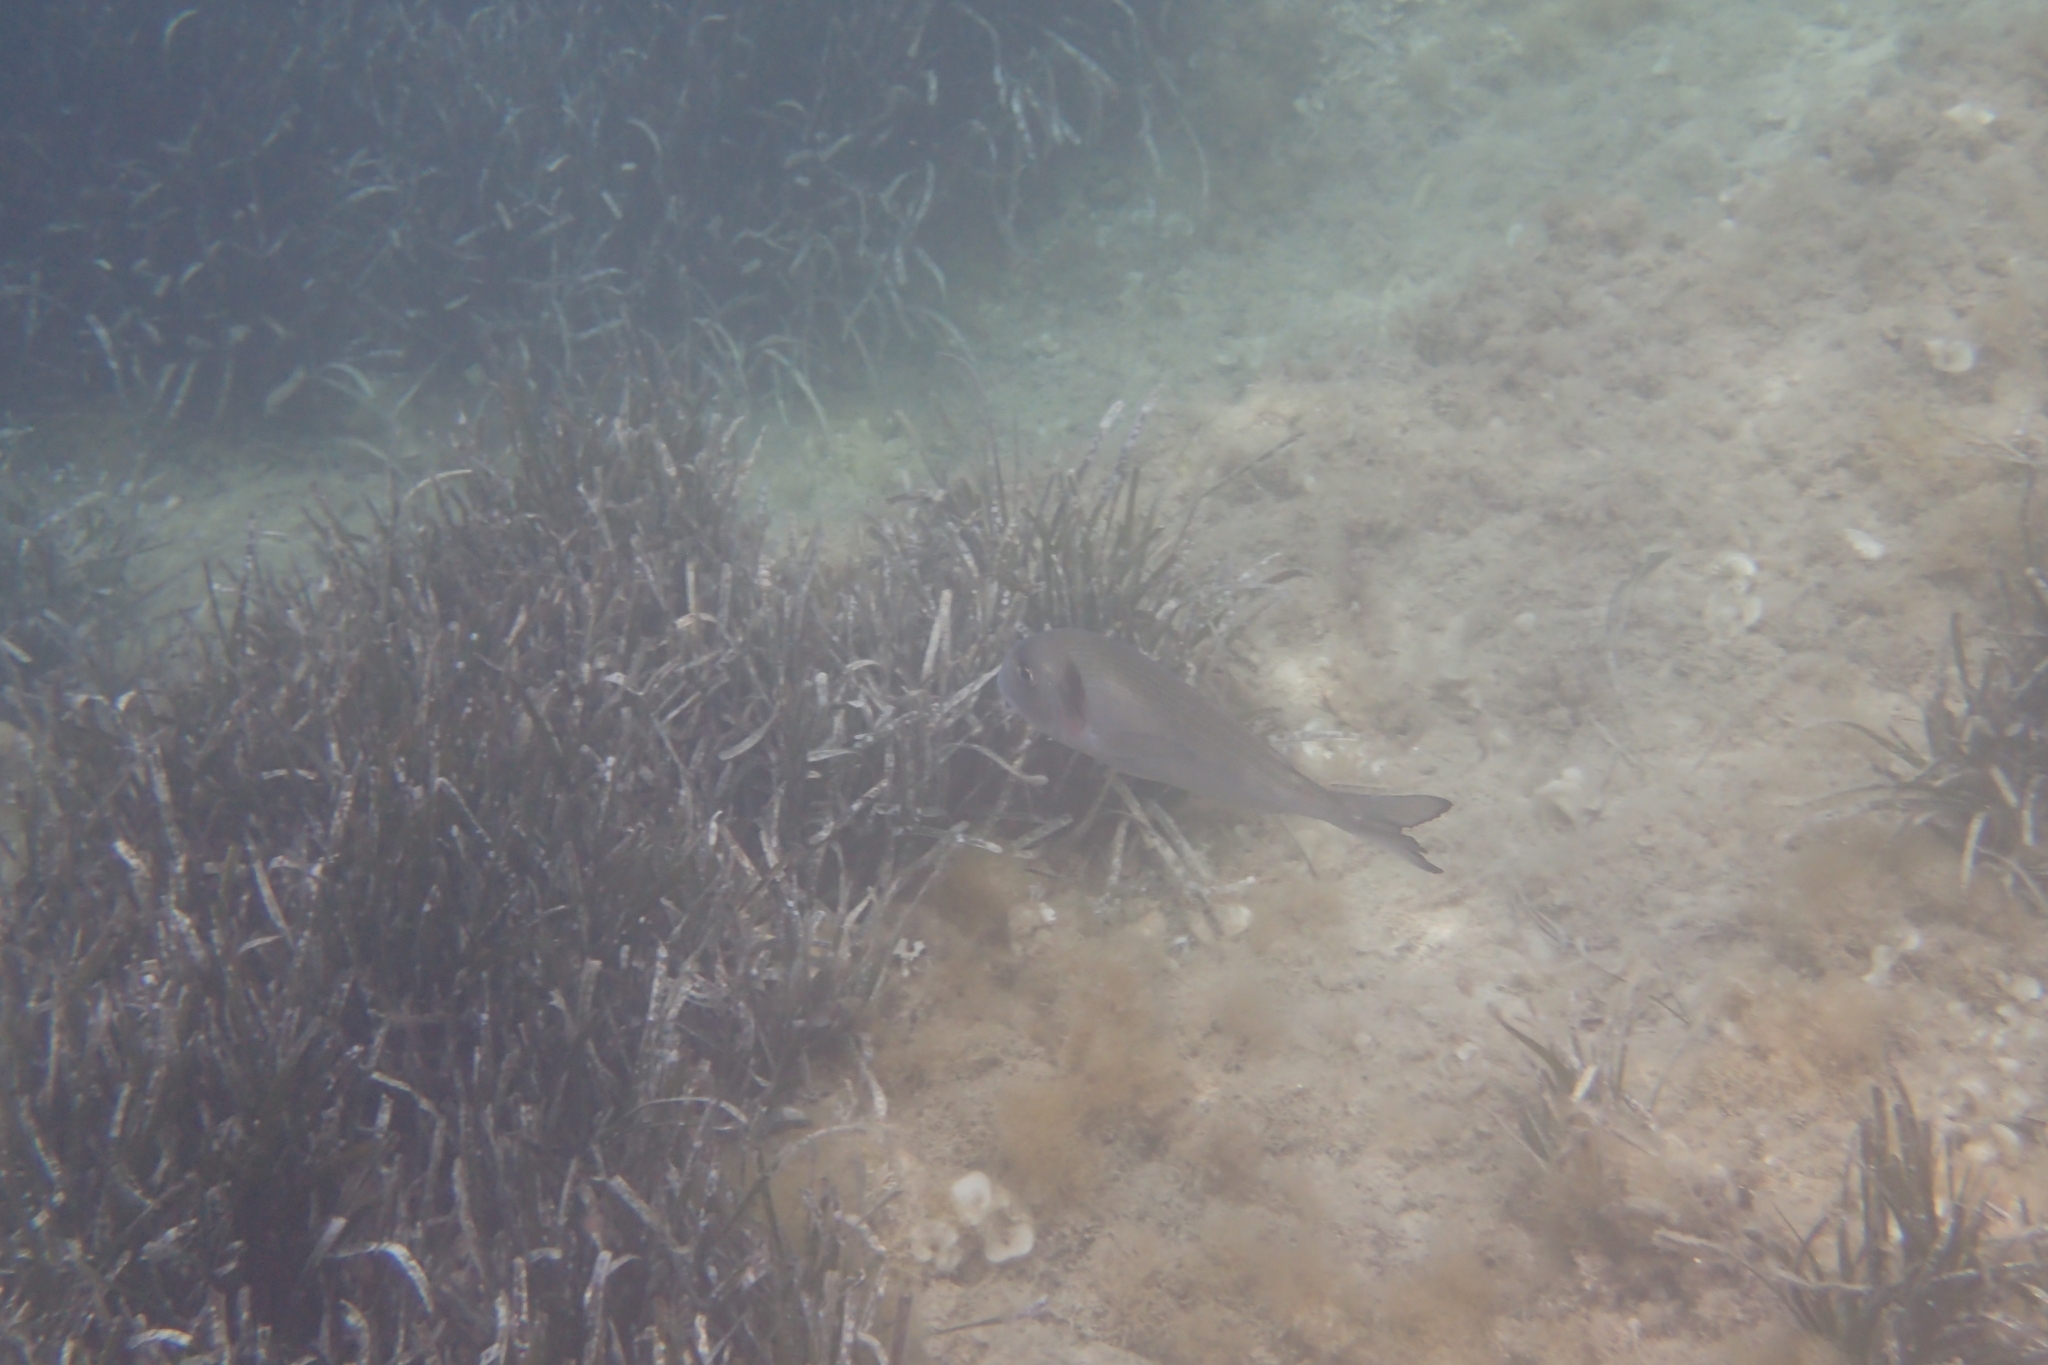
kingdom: Animalia
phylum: Chordata
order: Perciformes
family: Sparidae
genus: Sparus
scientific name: Sparus aurata
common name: Gilthead
